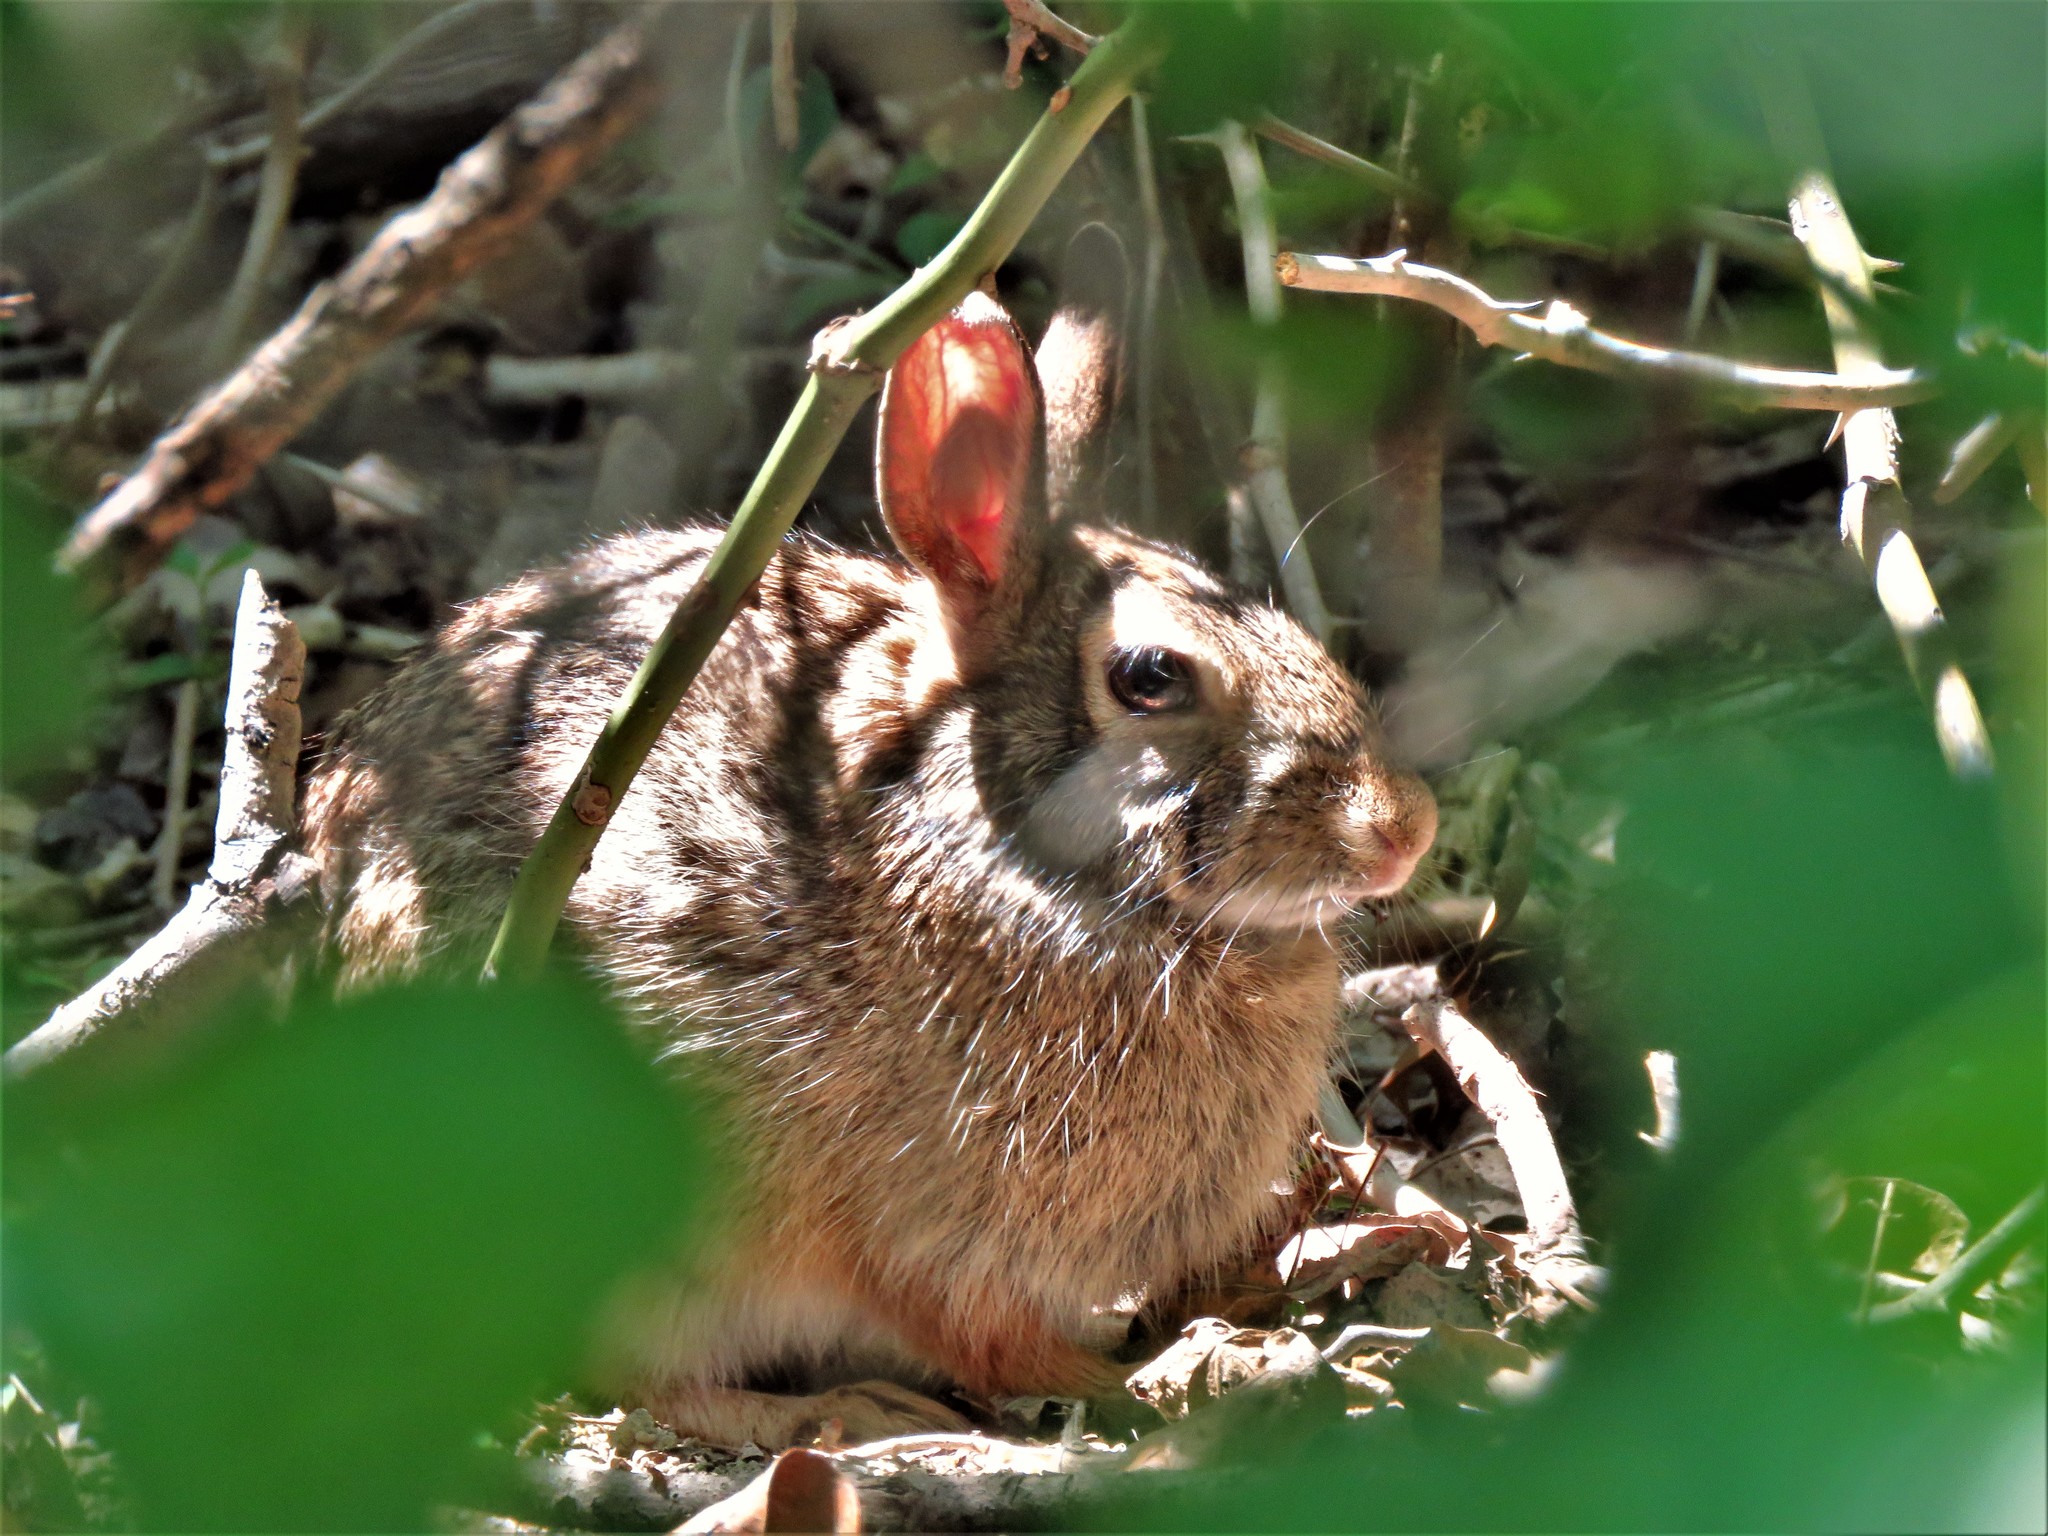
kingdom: Animalia
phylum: Chordata
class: Mammalia
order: Lagomorpha
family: Leporidae
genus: Sylvilagus
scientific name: Sylvilagus floridanus
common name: Eastern cottontail
